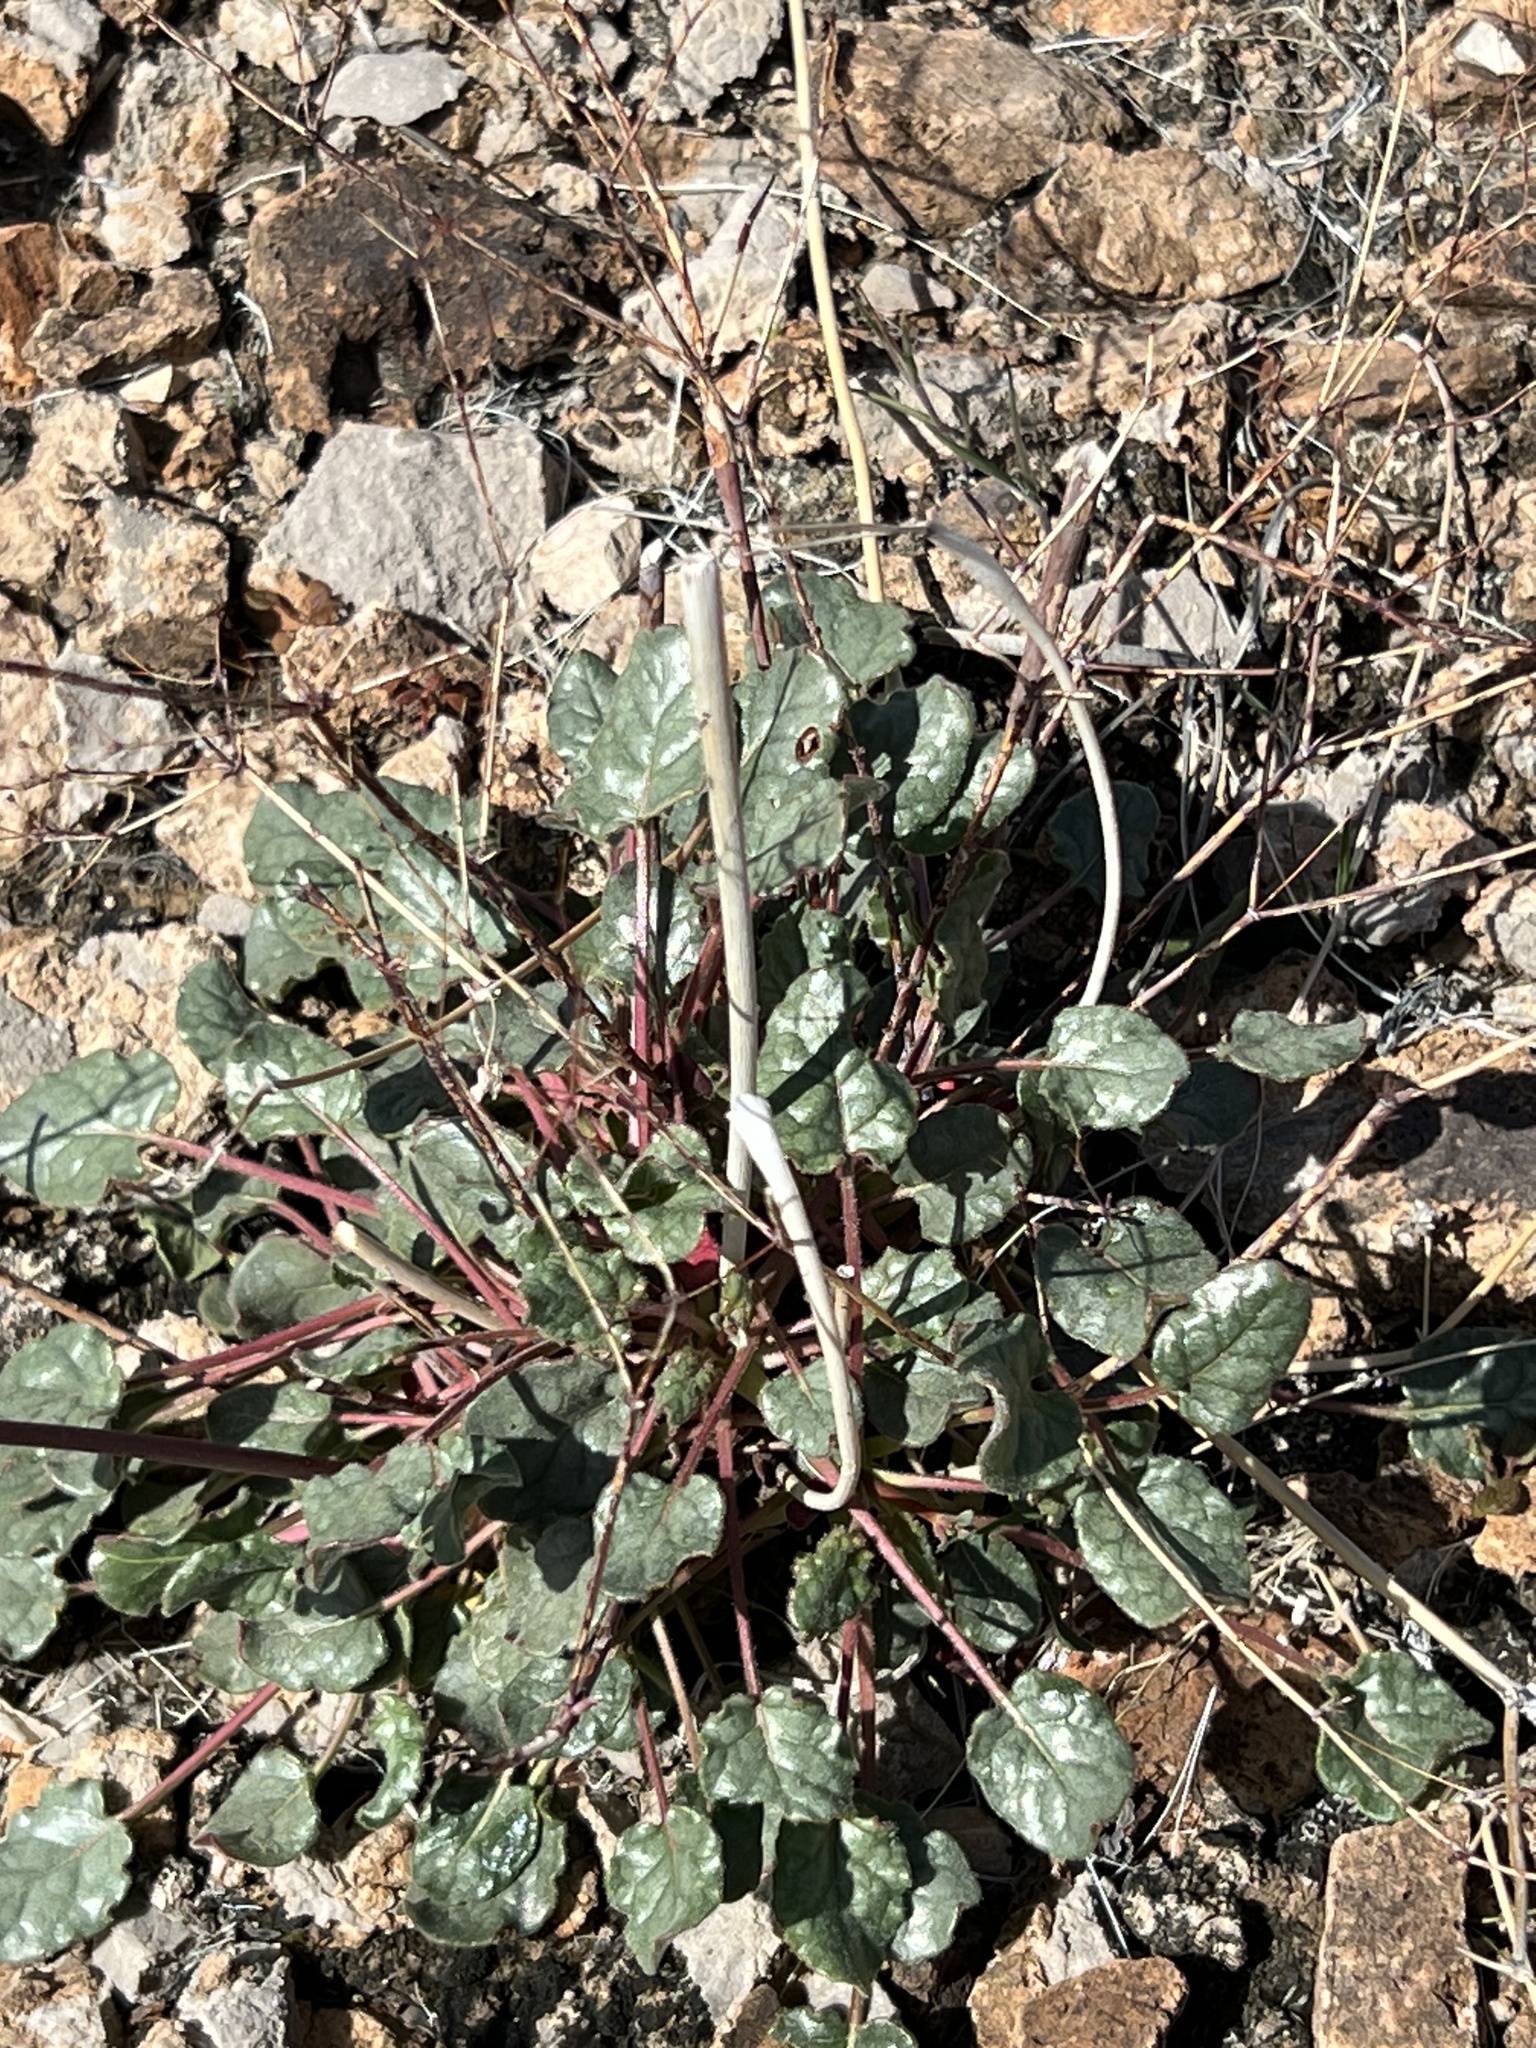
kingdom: Plantae
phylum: Tracheophyta
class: Magnoliopsida
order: Caryophyllales
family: Polygonaceae
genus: Eriogonum
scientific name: Eriogonum inflatum
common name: Desert trumpet
